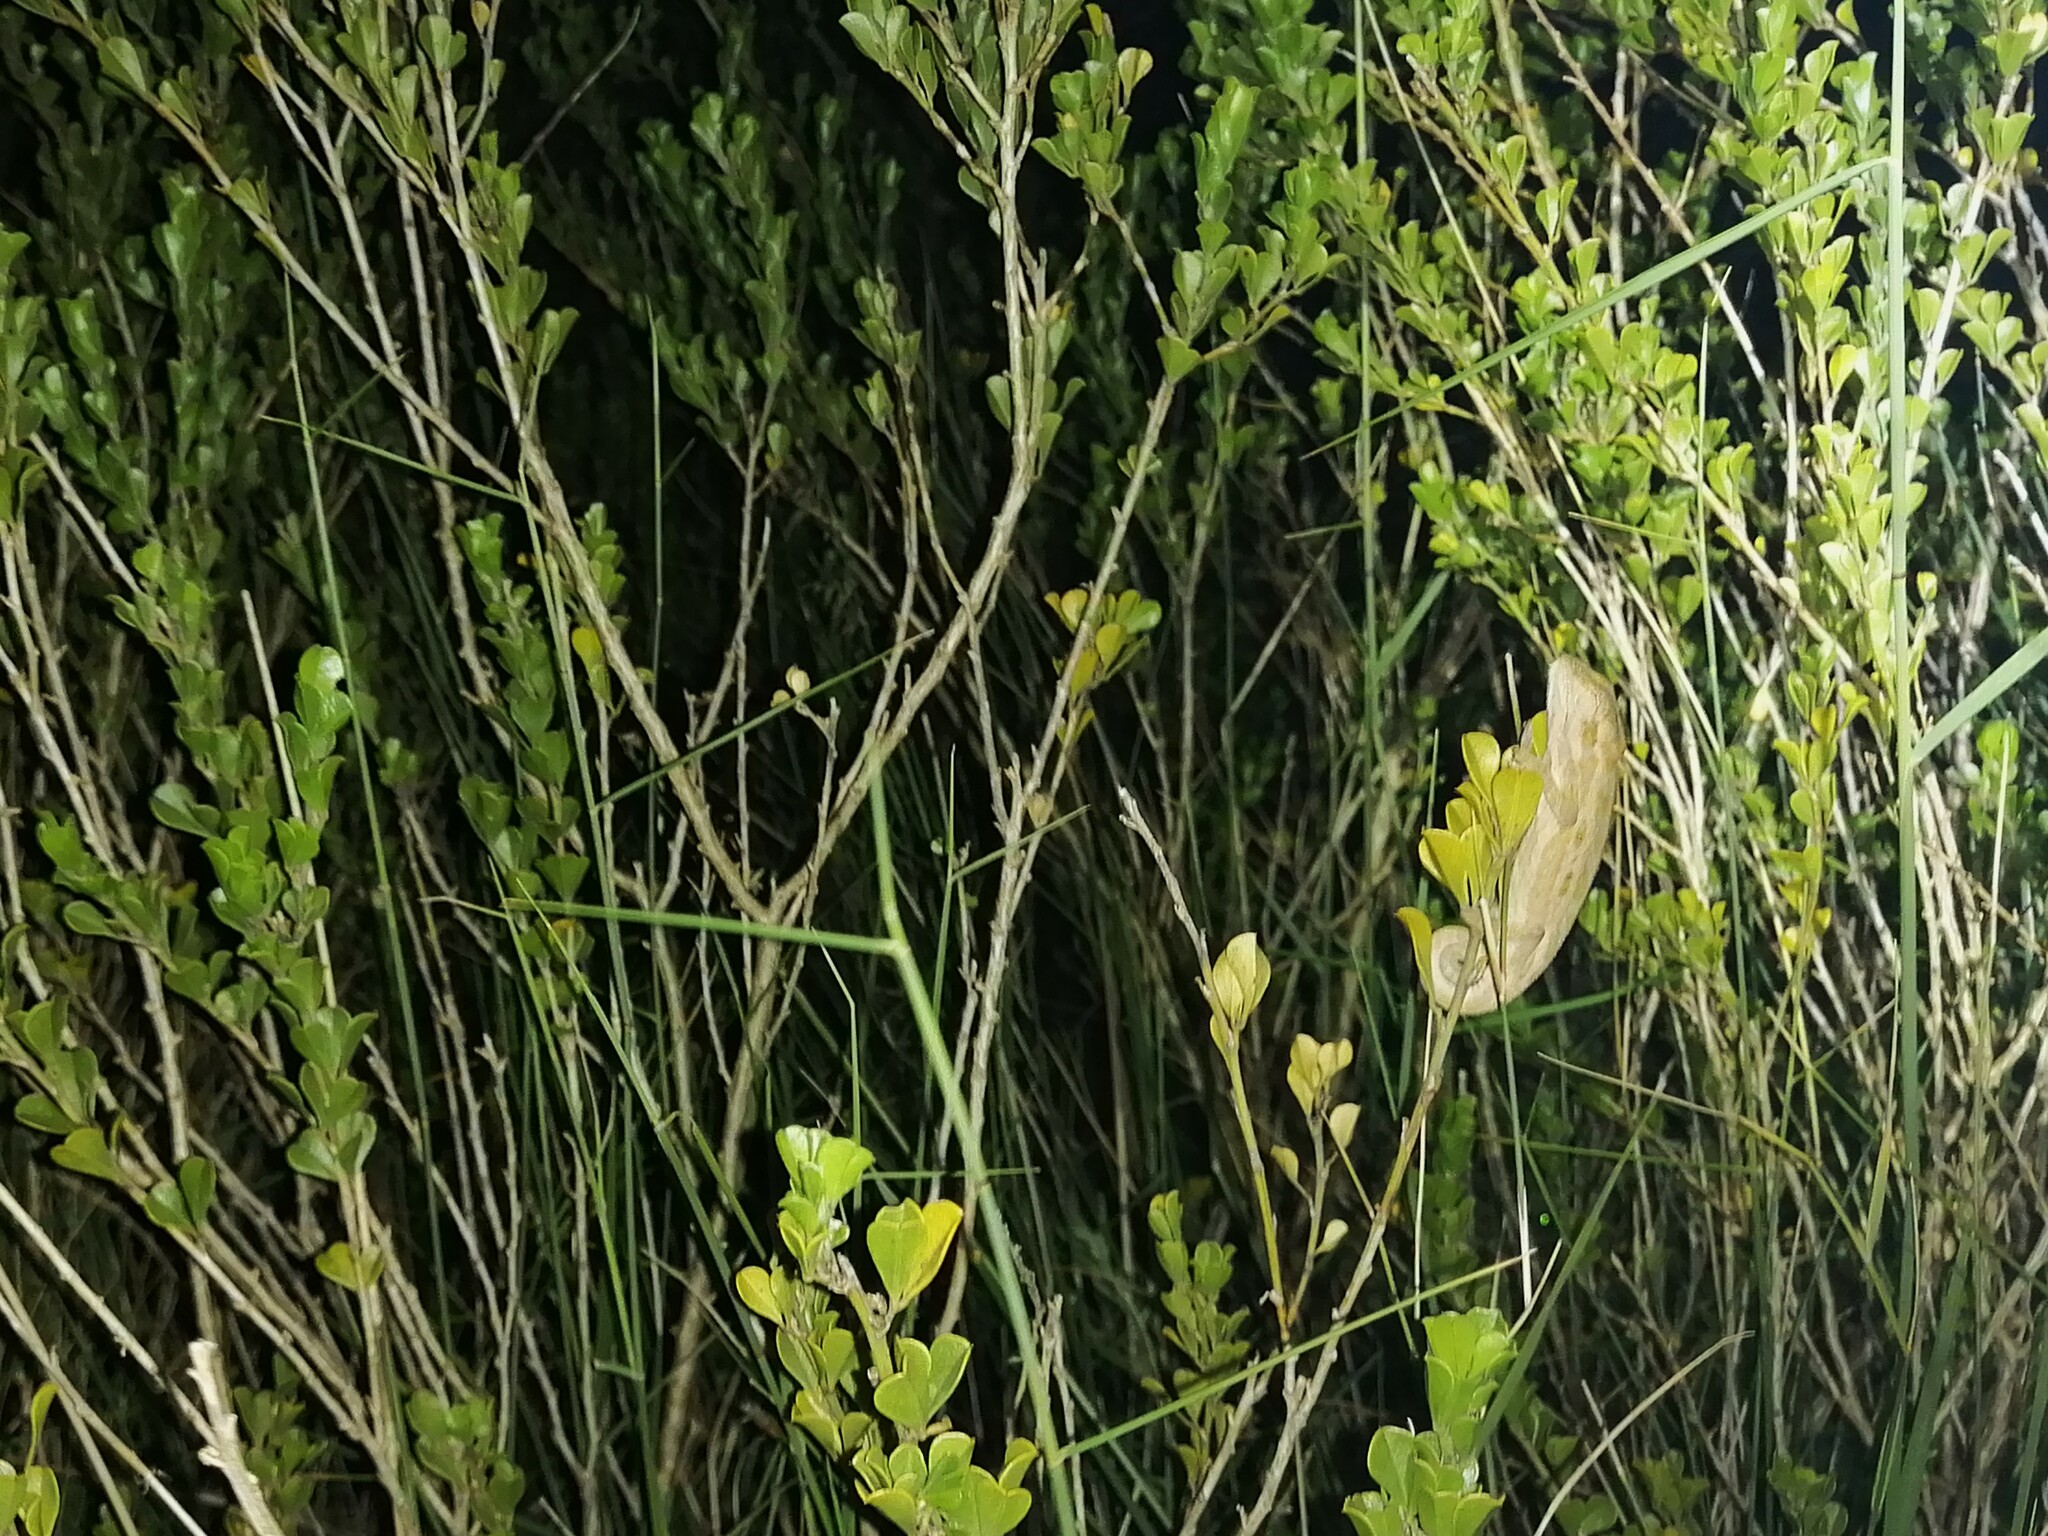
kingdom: Animalia
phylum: Chordata
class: Squamata
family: Chamaeleonidae
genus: Bradypodion
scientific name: Bradypodion pumilum
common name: Cape dwarf chameleon
